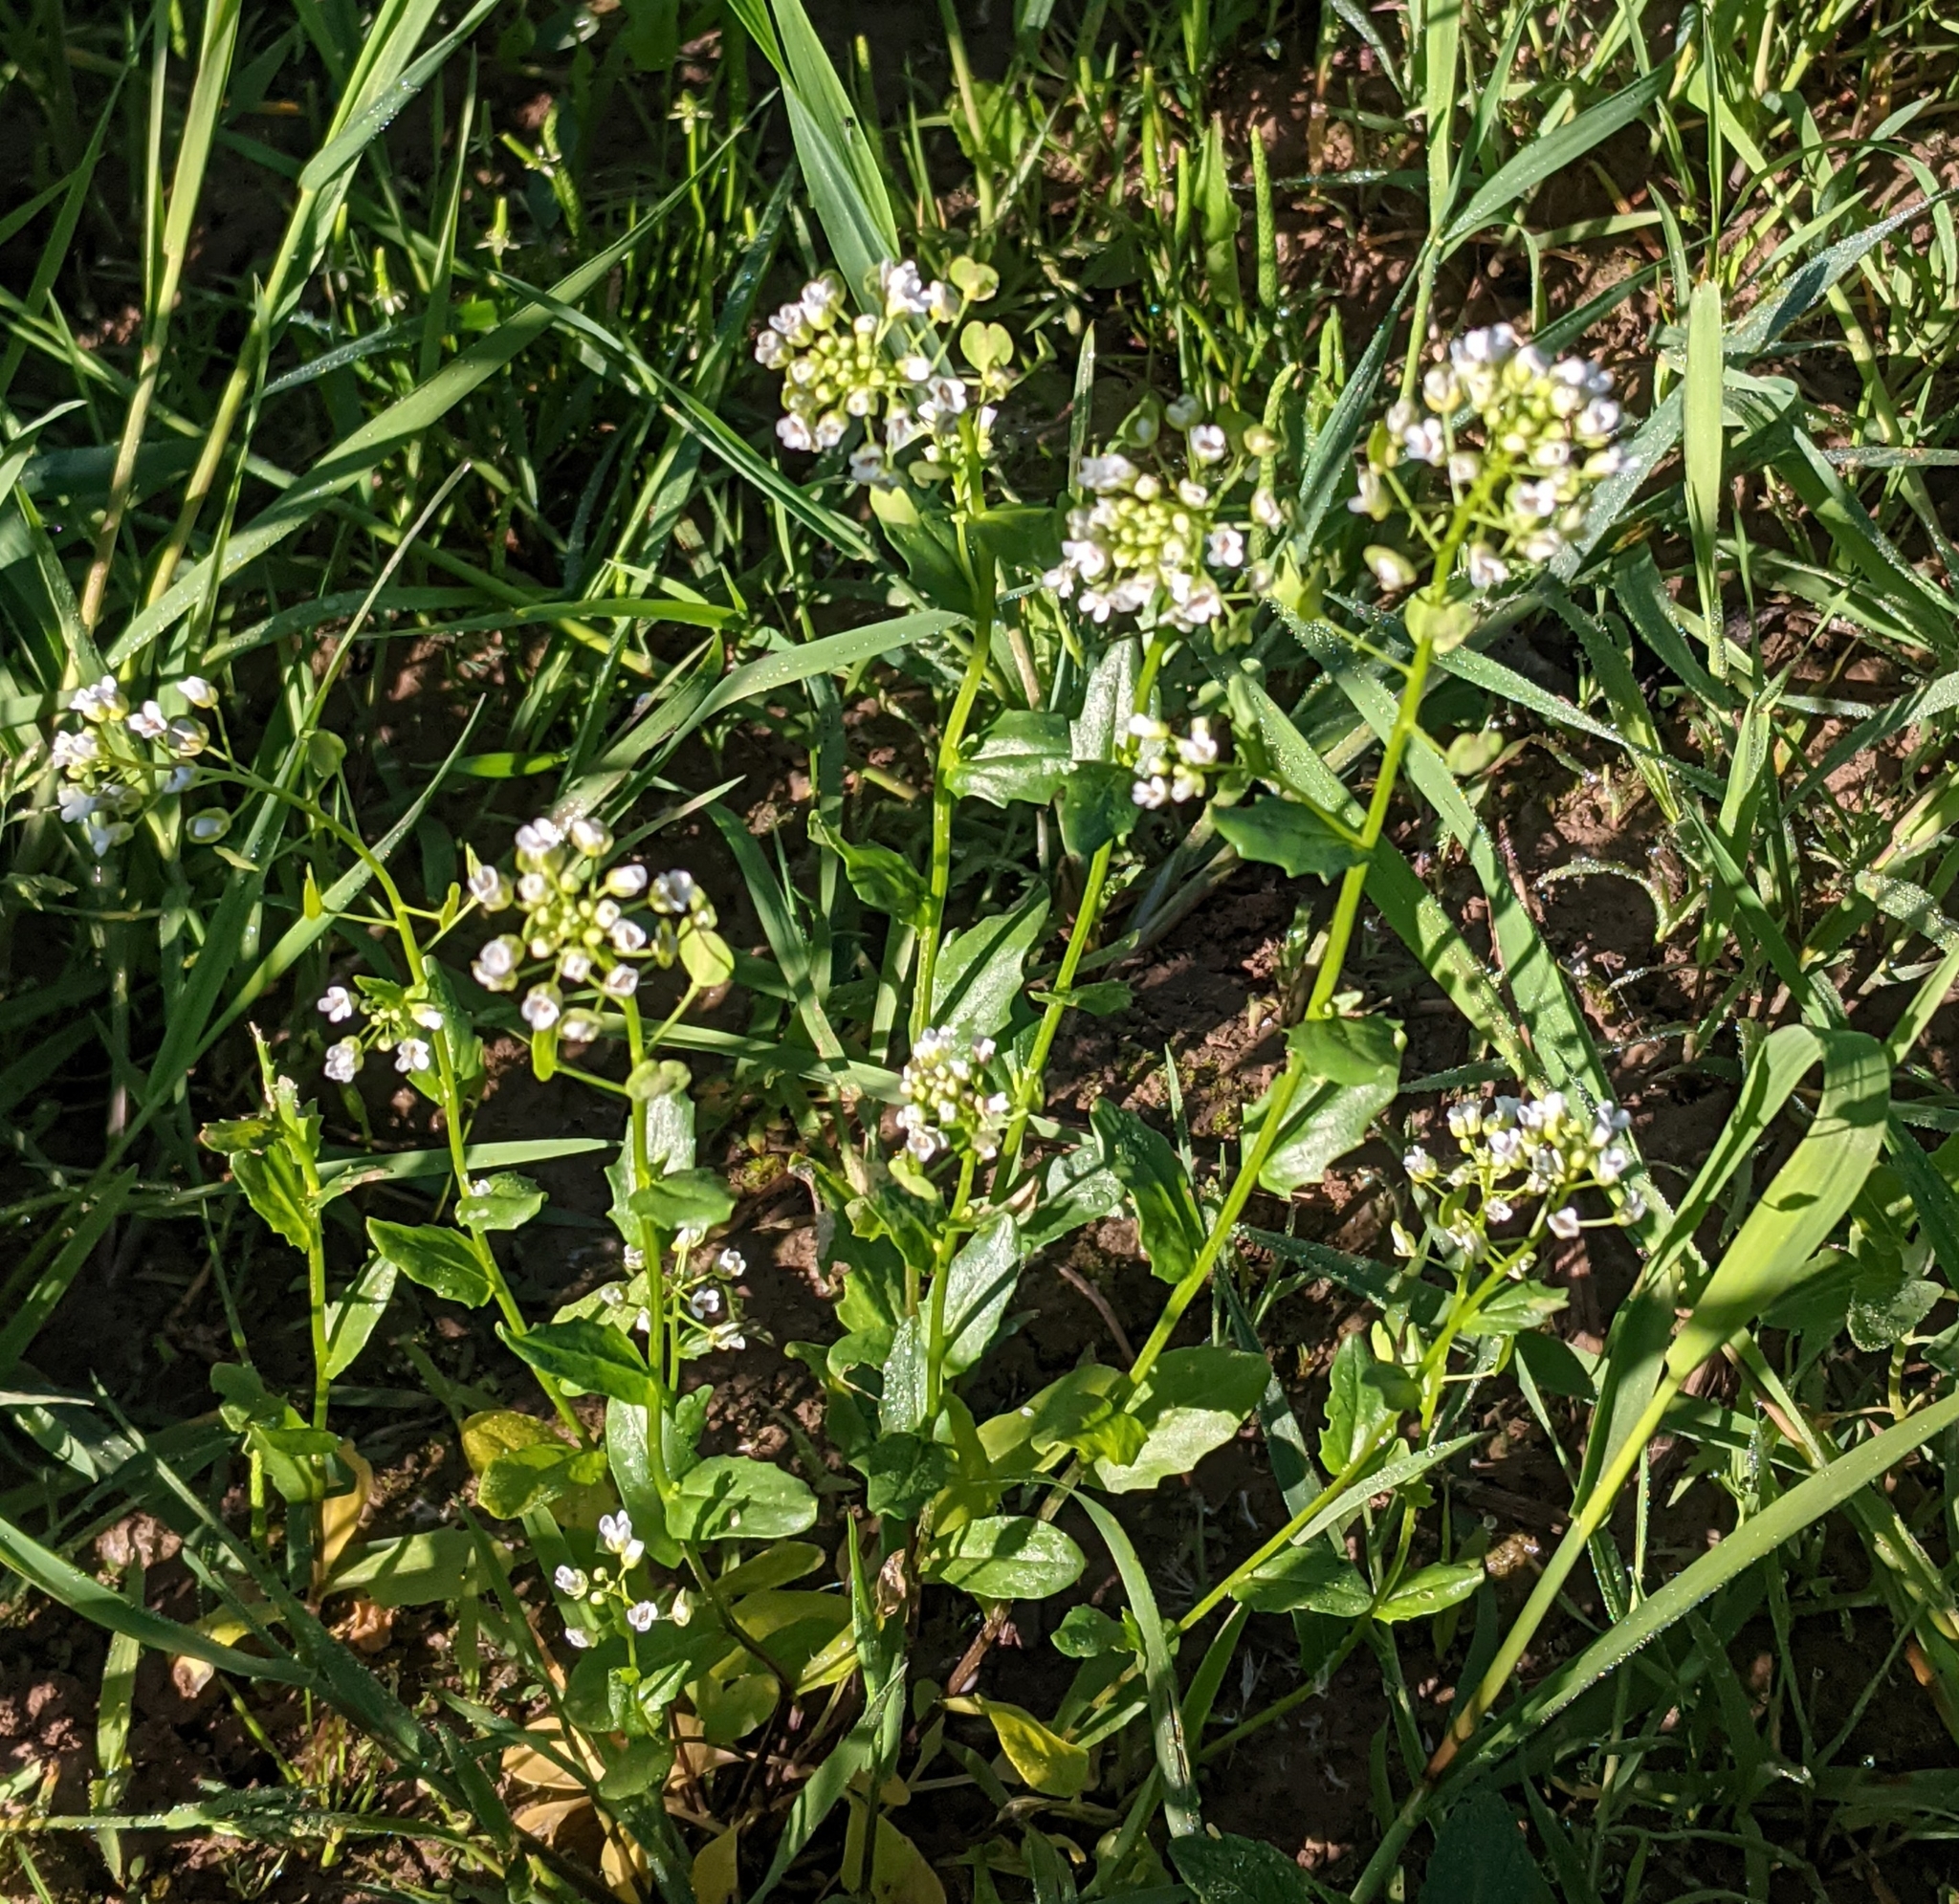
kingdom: Plantae
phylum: Tracheophyta
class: Magnoliopsida
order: Brassicales
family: Brassicaceae
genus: Thlaspi
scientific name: Thlaspi arvense
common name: Field pennycress
